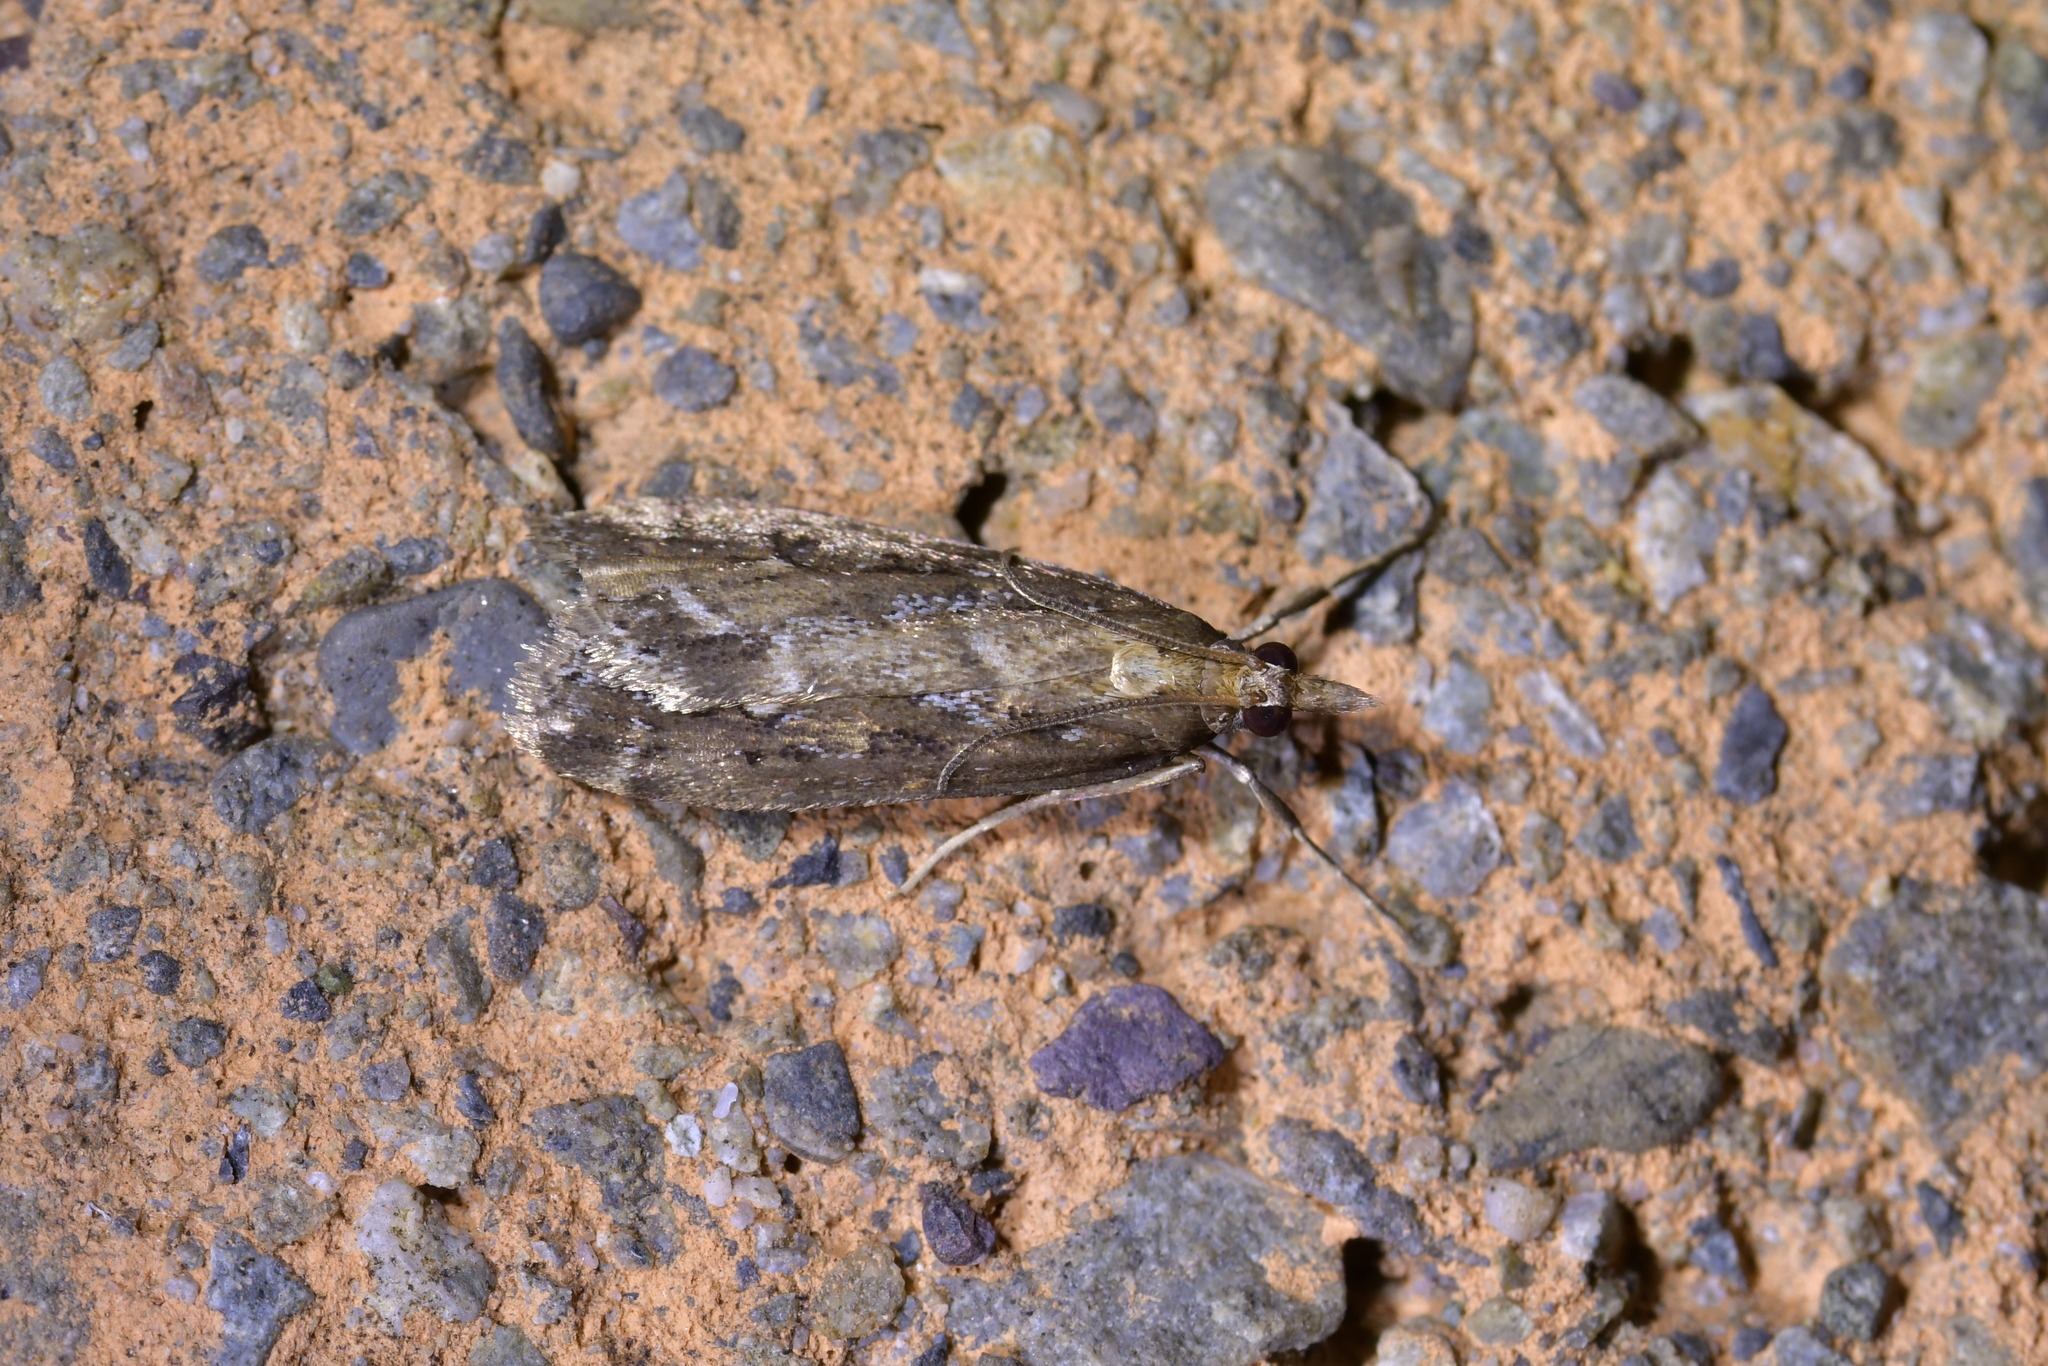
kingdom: Animalia
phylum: Arthropoda
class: Insecta
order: Lepidoptera
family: Crambidae
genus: Eudonia
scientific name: Eudonia octophora
